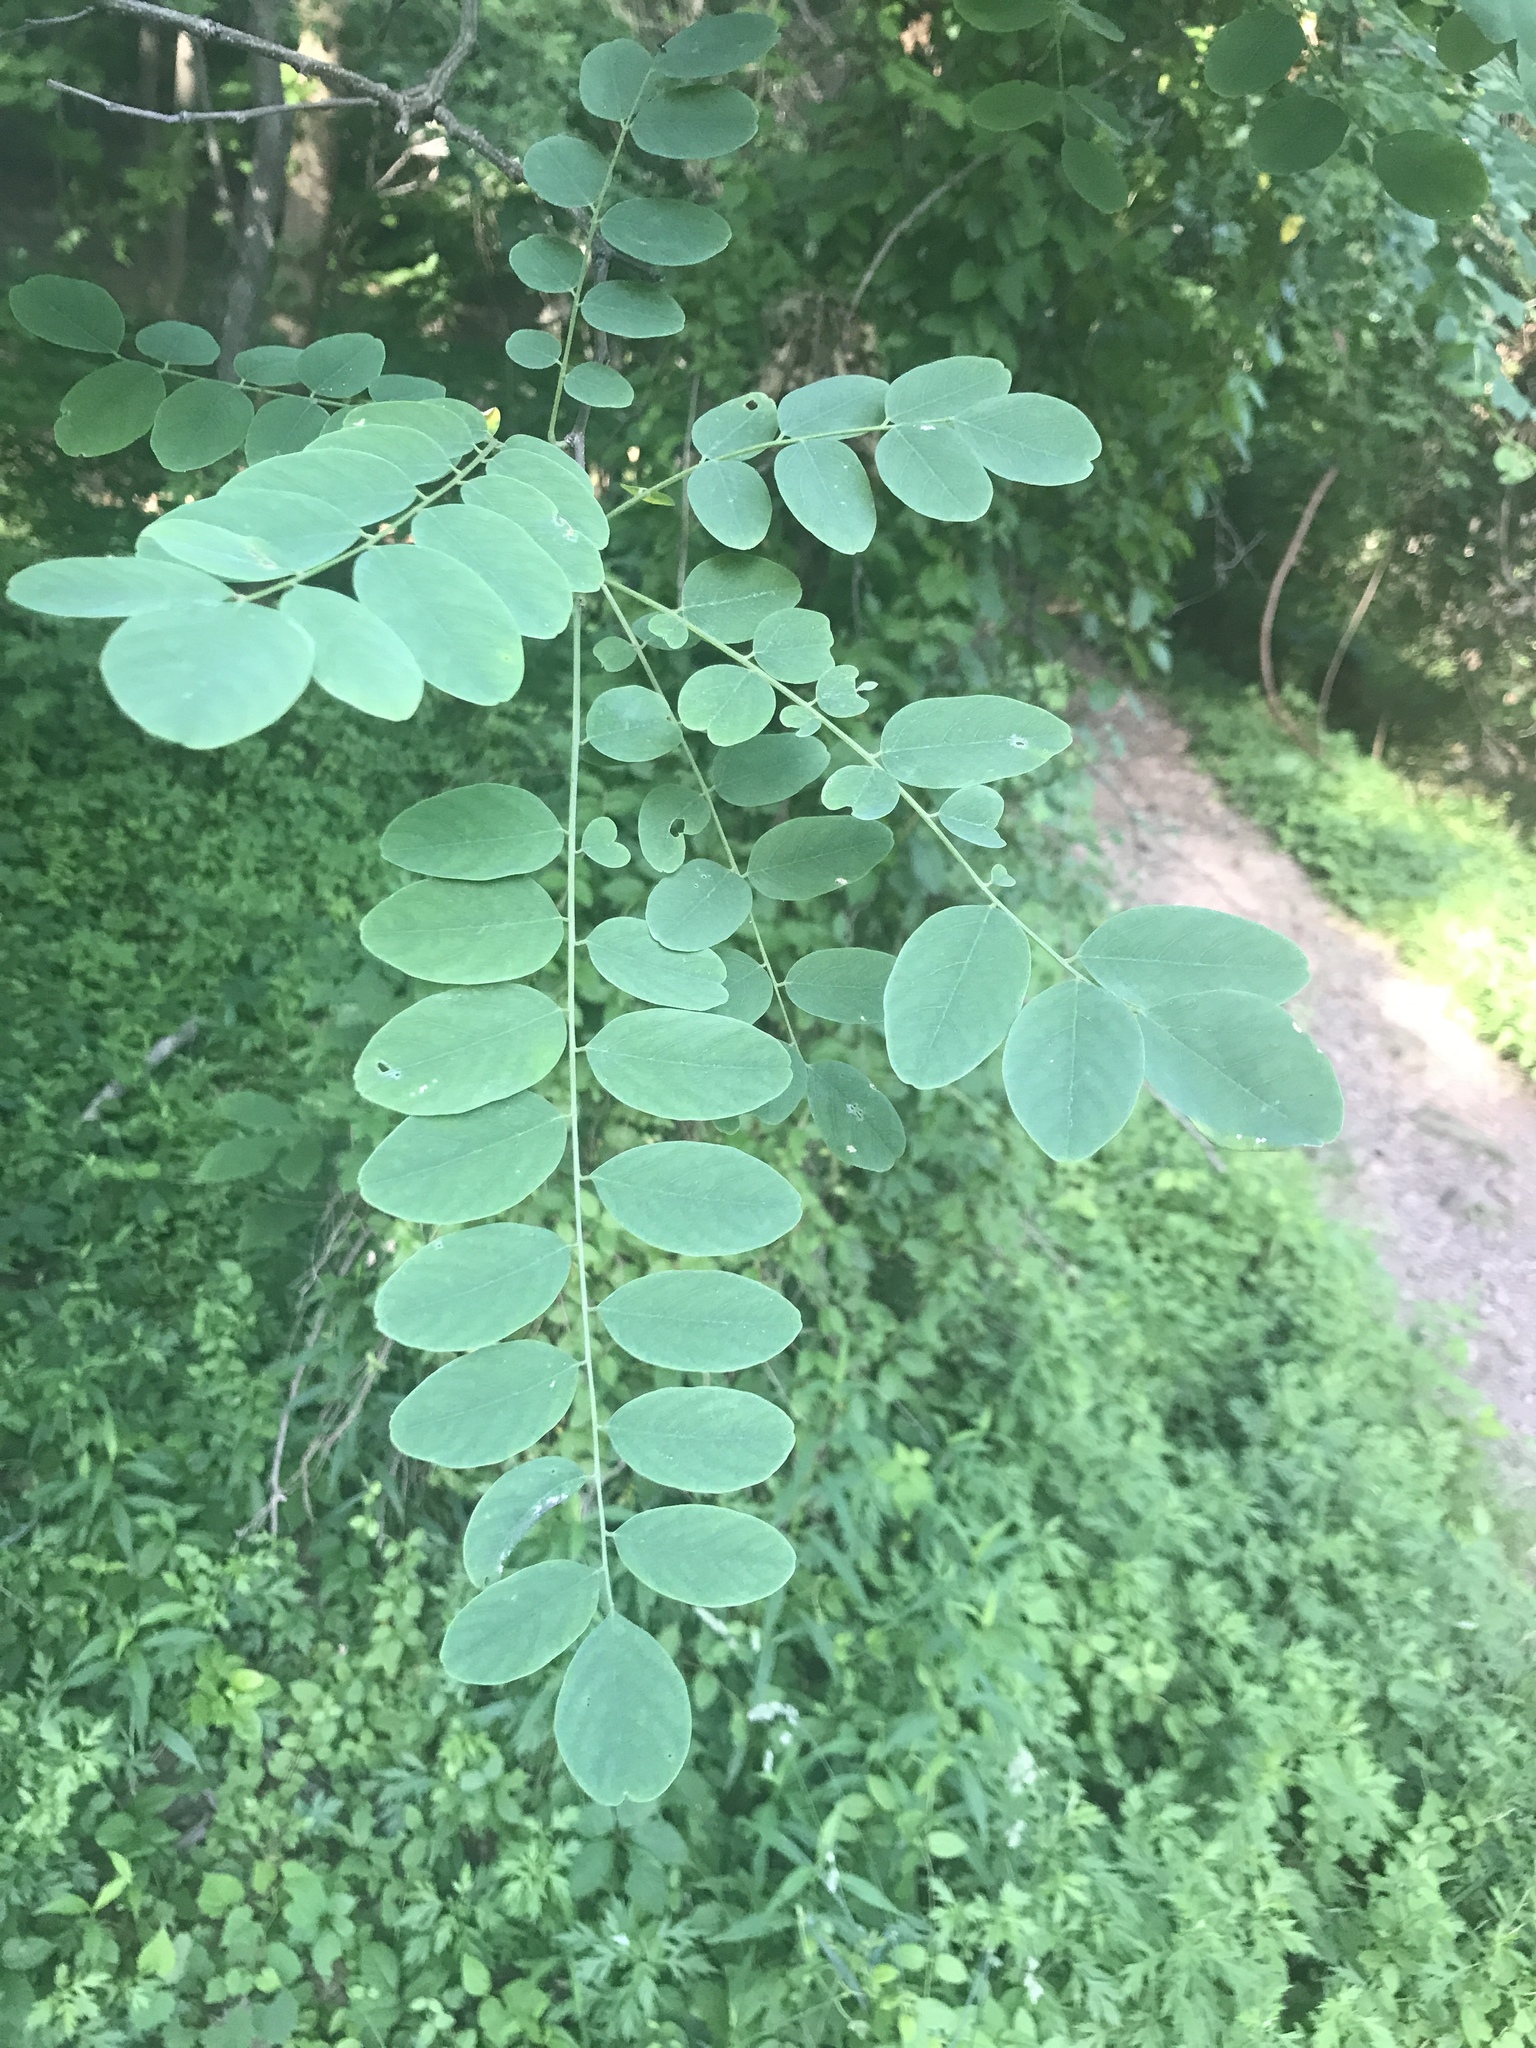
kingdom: Plantae
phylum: Tracheophyta
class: Magnoliopsida
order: Fabales
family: Fabaceae
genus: Robinia
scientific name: Robinia pseudoacacia
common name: Black locust
